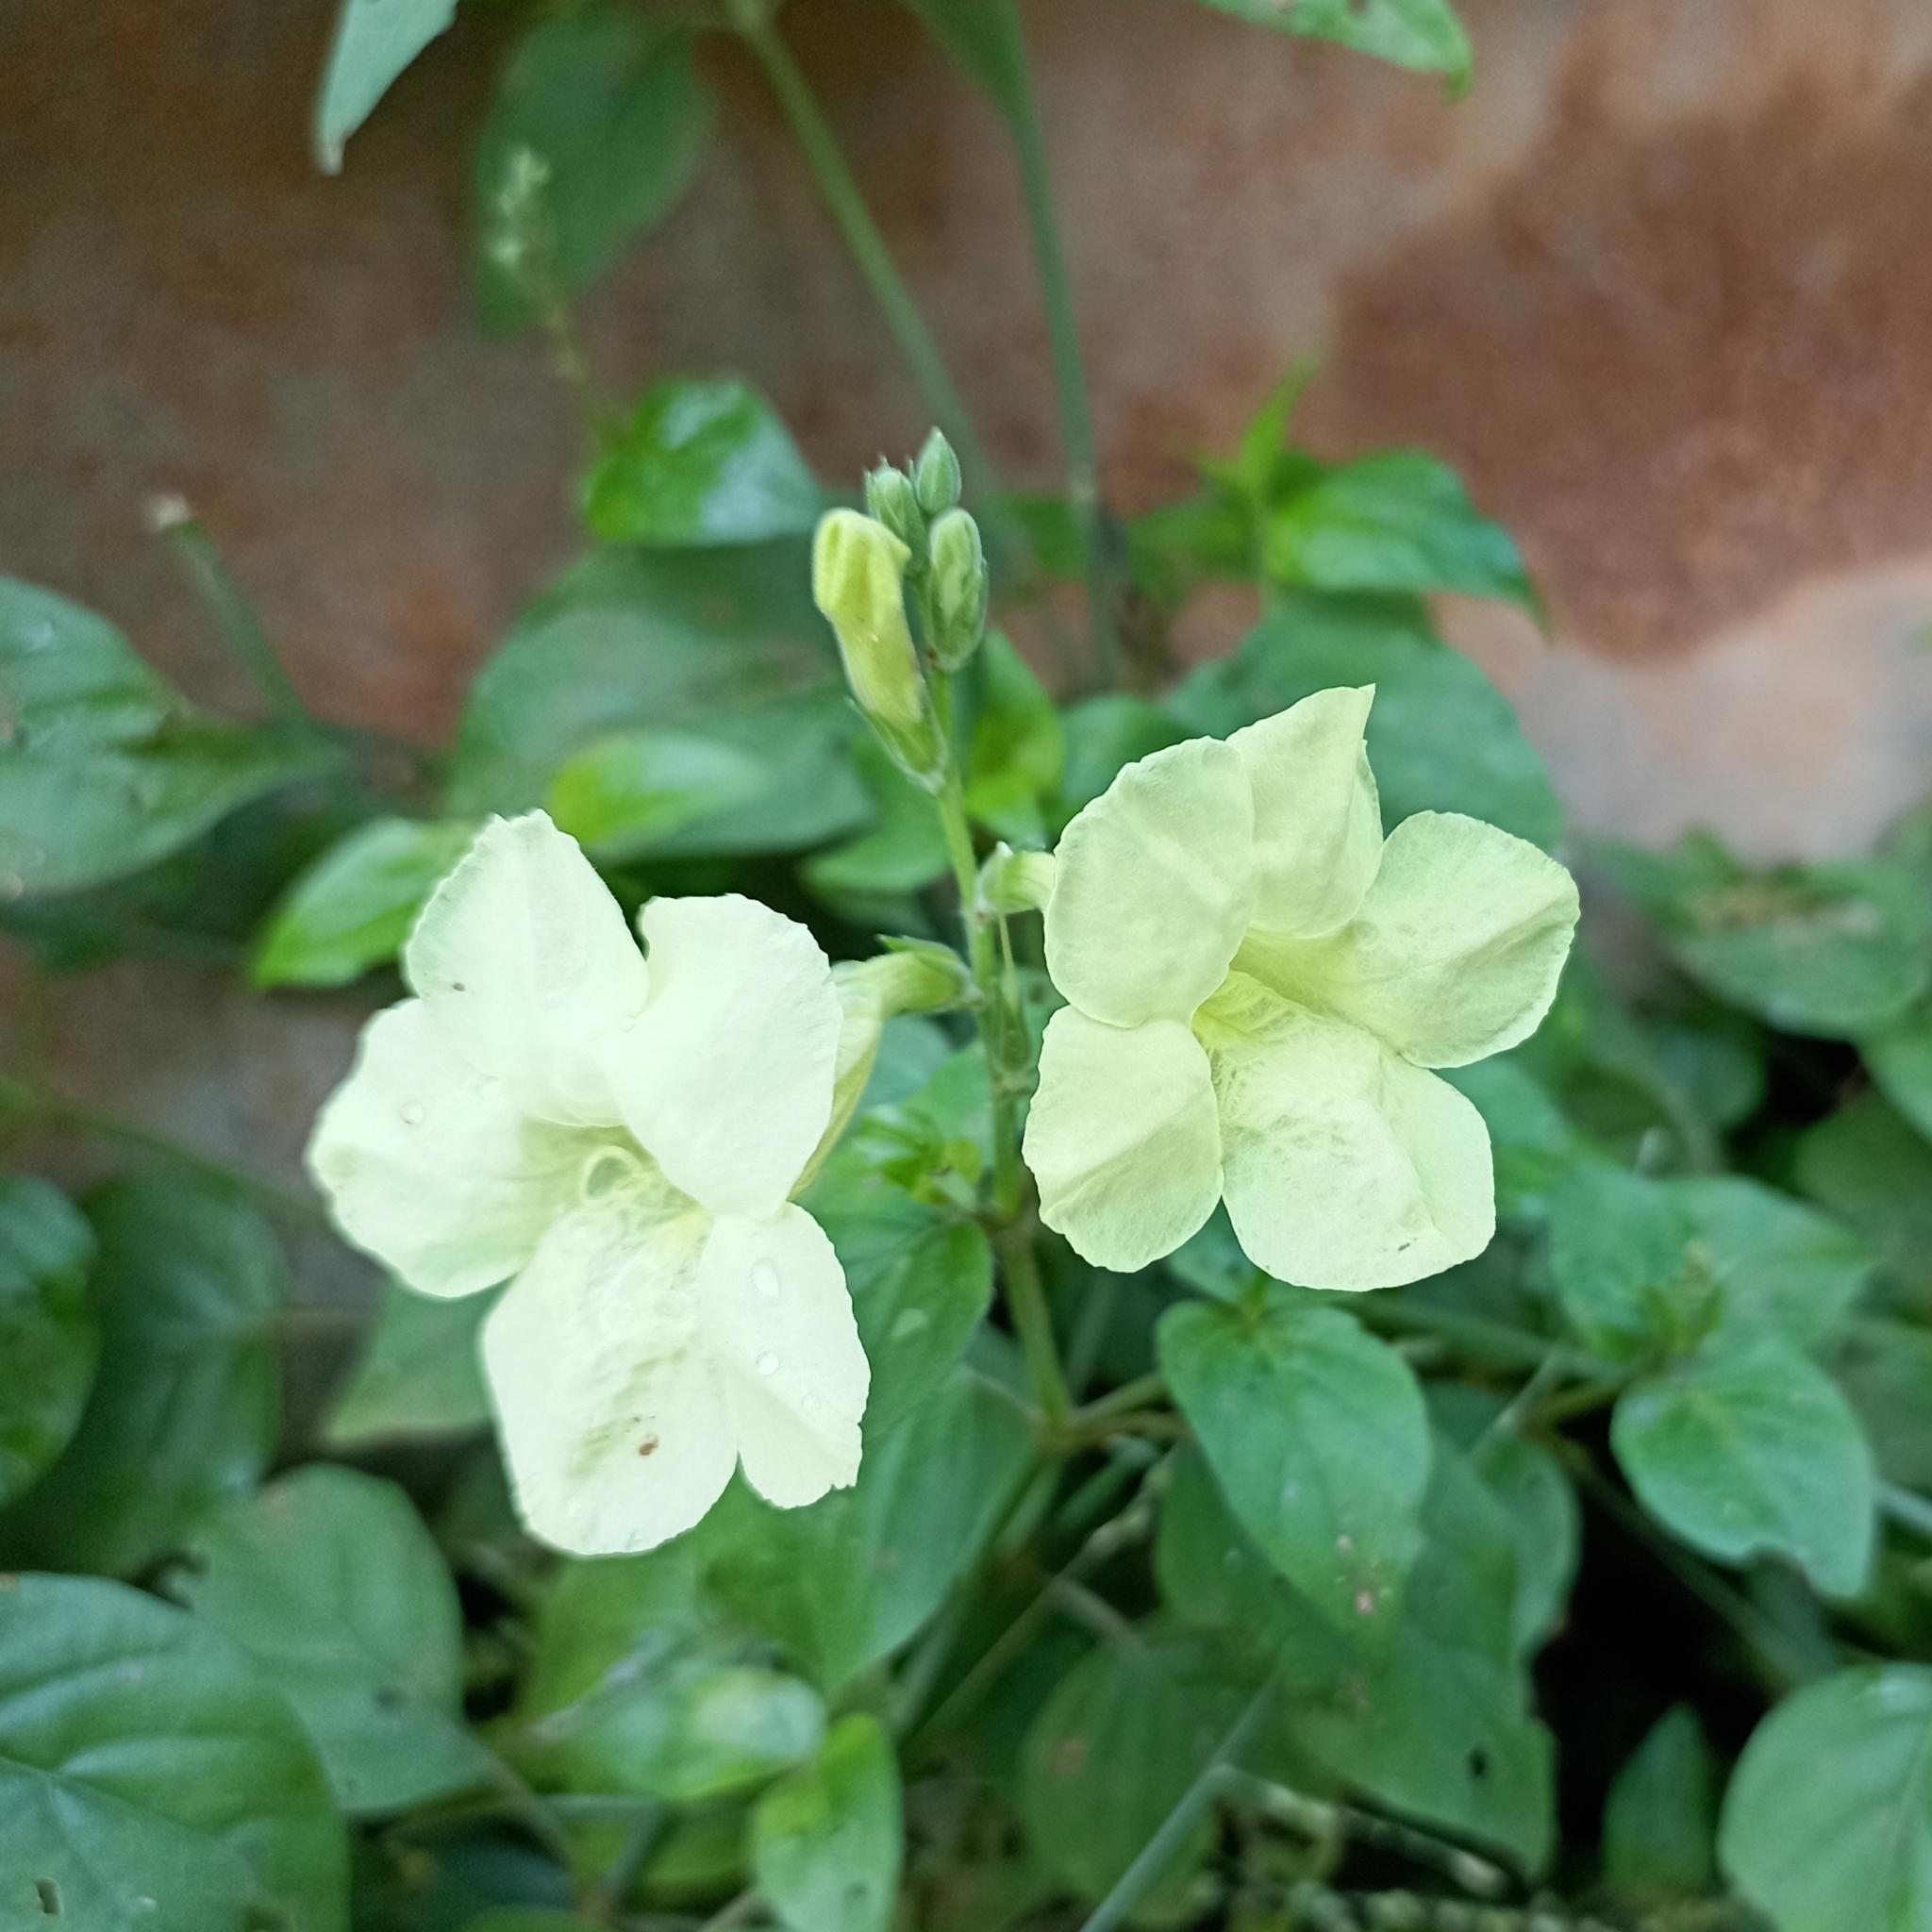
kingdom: Plantae
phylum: Tracheophyta
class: Magnoliopsida
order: Lamiales
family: Acanthaceae
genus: Asystasia
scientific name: Asystasia gangetica
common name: Chinese violet
